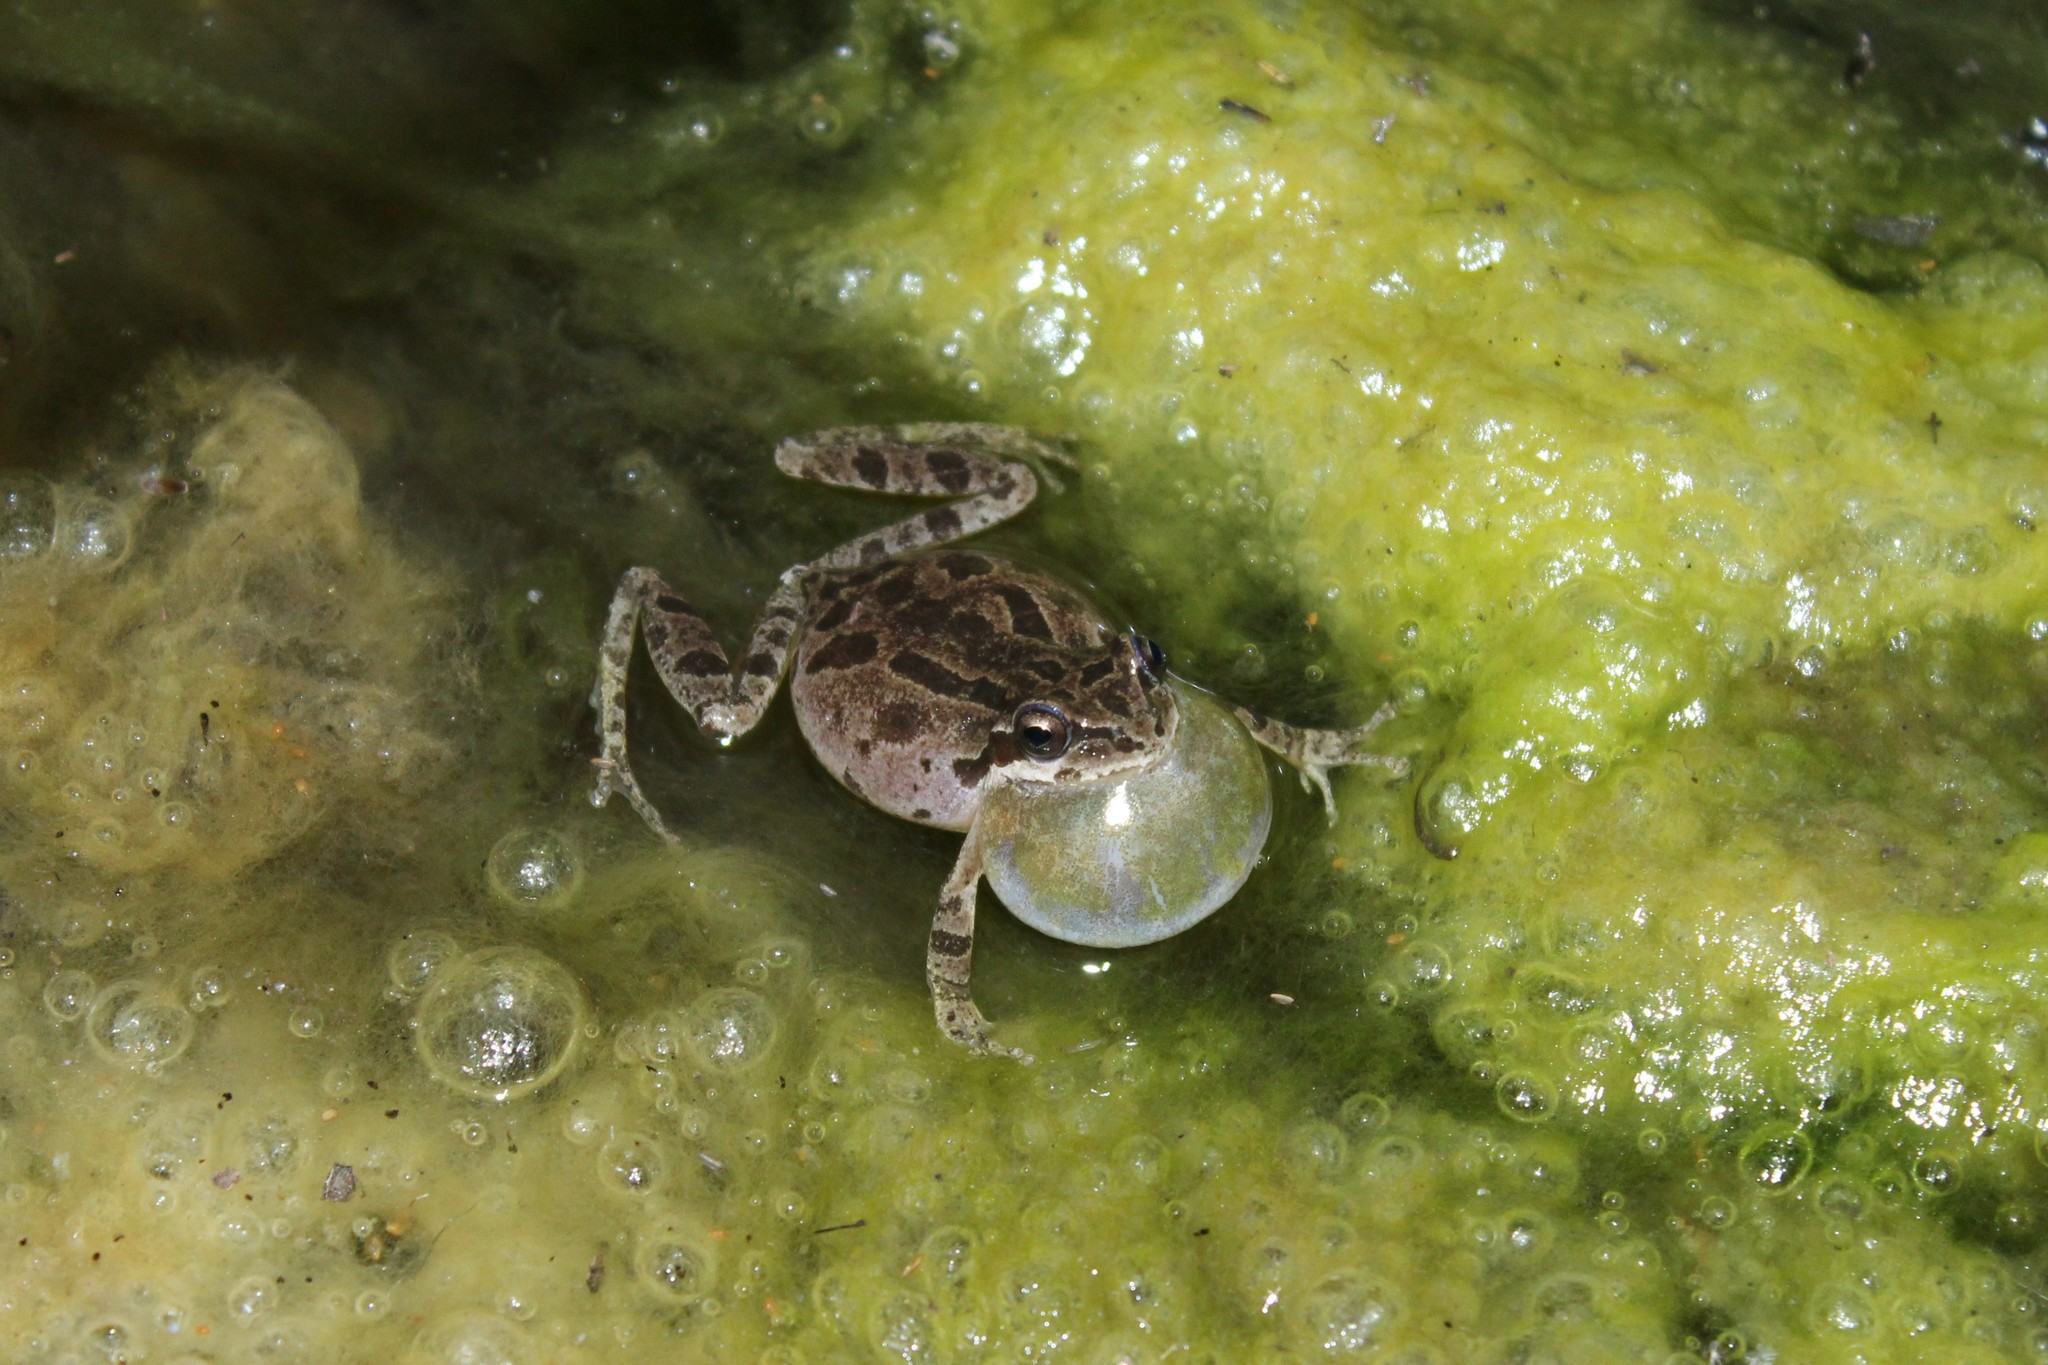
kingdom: Animalia
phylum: Chordata
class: Amphibia
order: Anura
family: Hylidae
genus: Pseudacris
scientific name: Pseudacris regilla
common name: Pacific chorus frog
